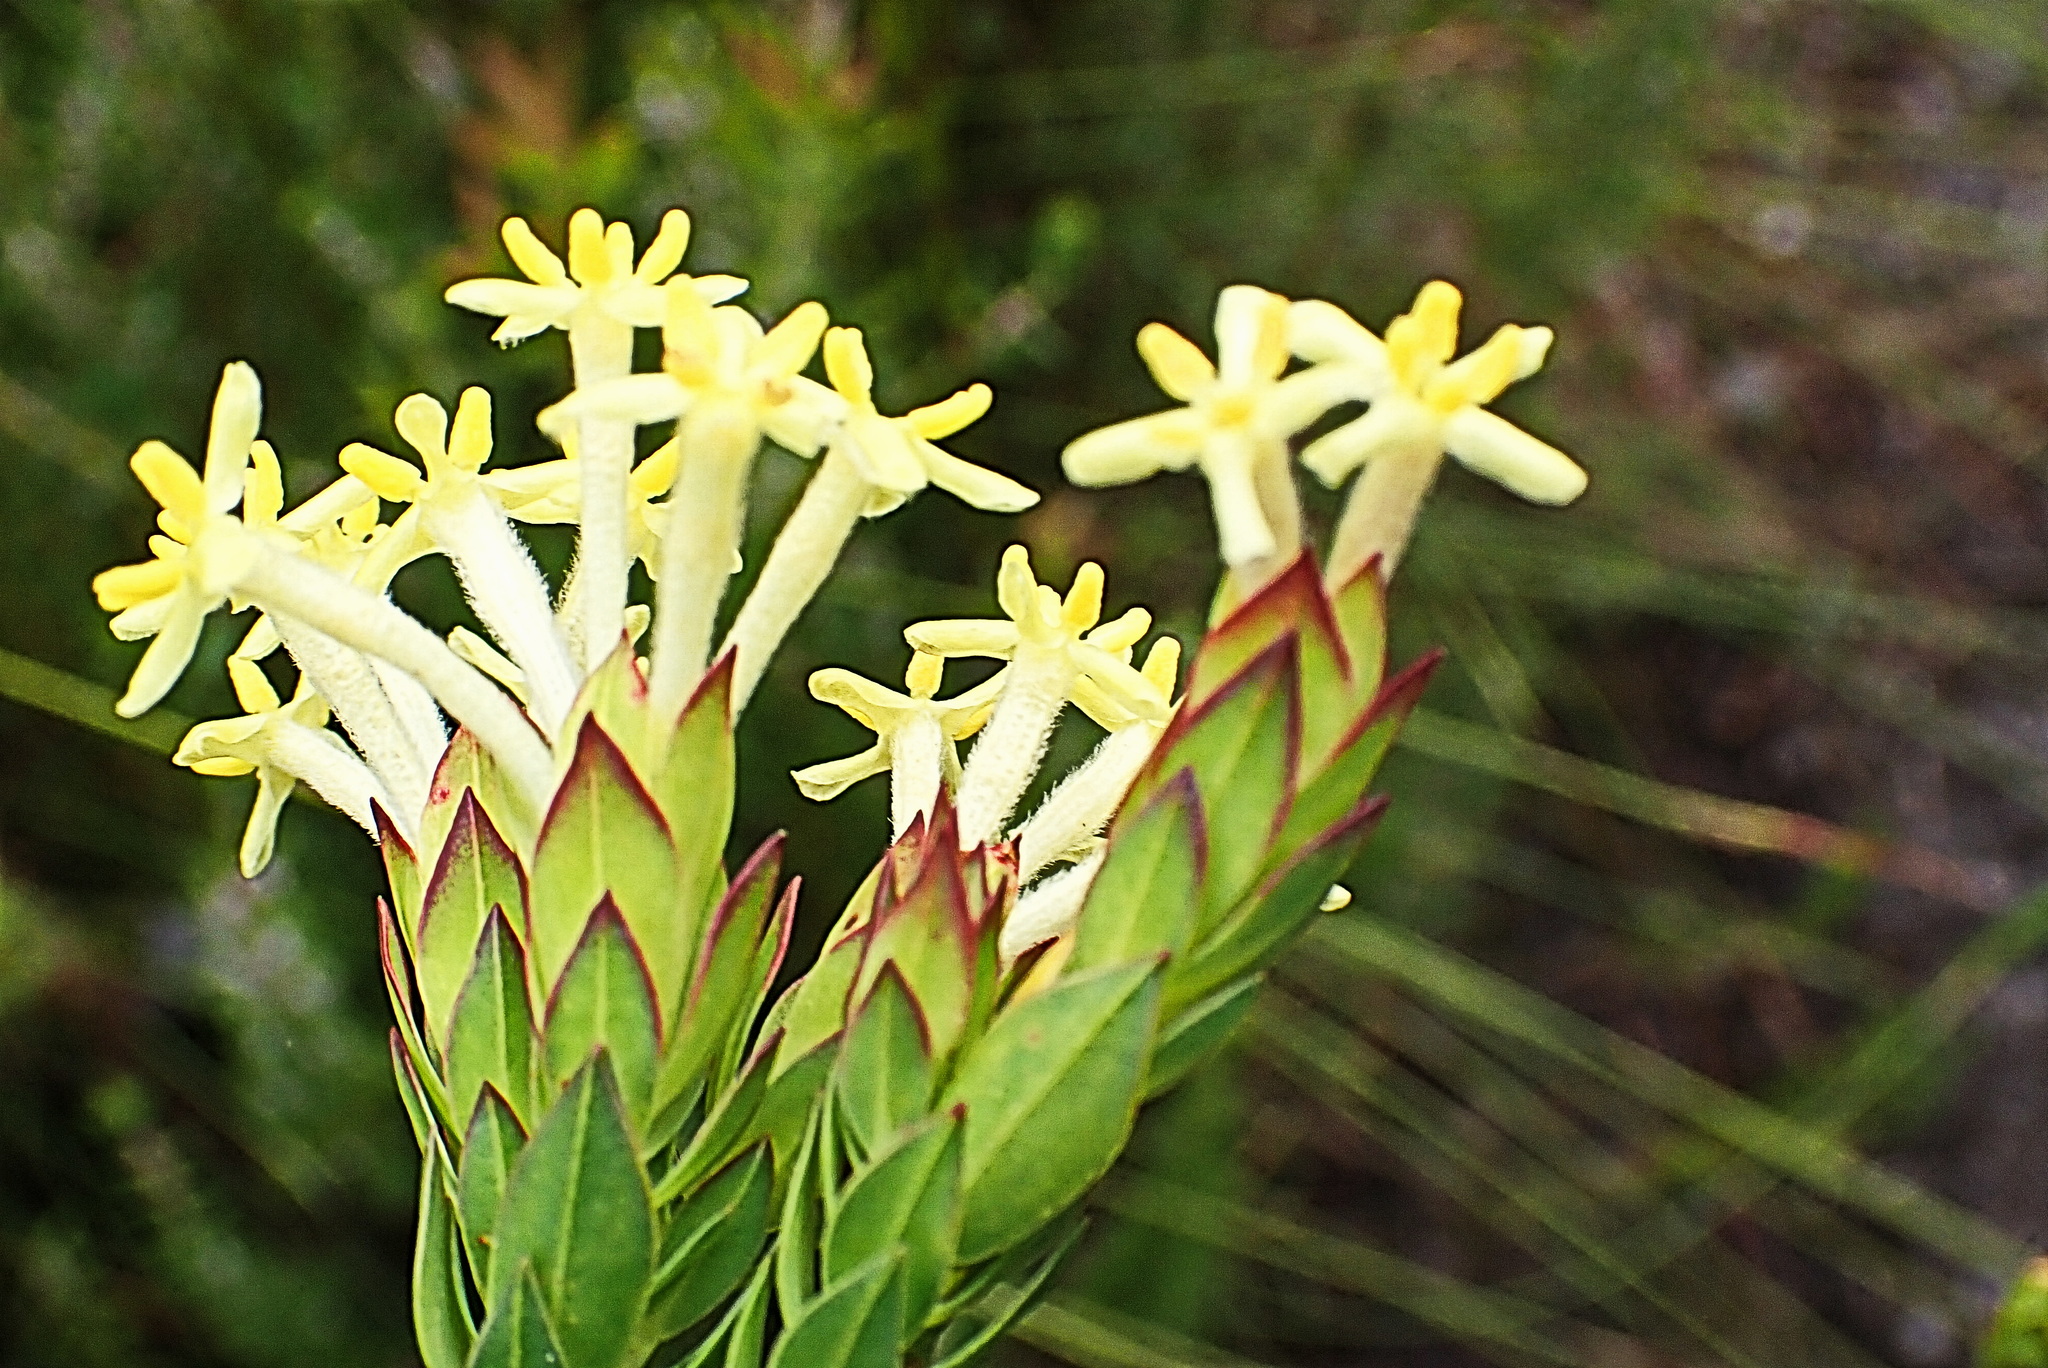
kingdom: Plantae
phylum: Tracheophyta
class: Magnoliopsida
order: Malvales
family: Thymelaeaceae
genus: Gnidia
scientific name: Gnidia oppositifolia
